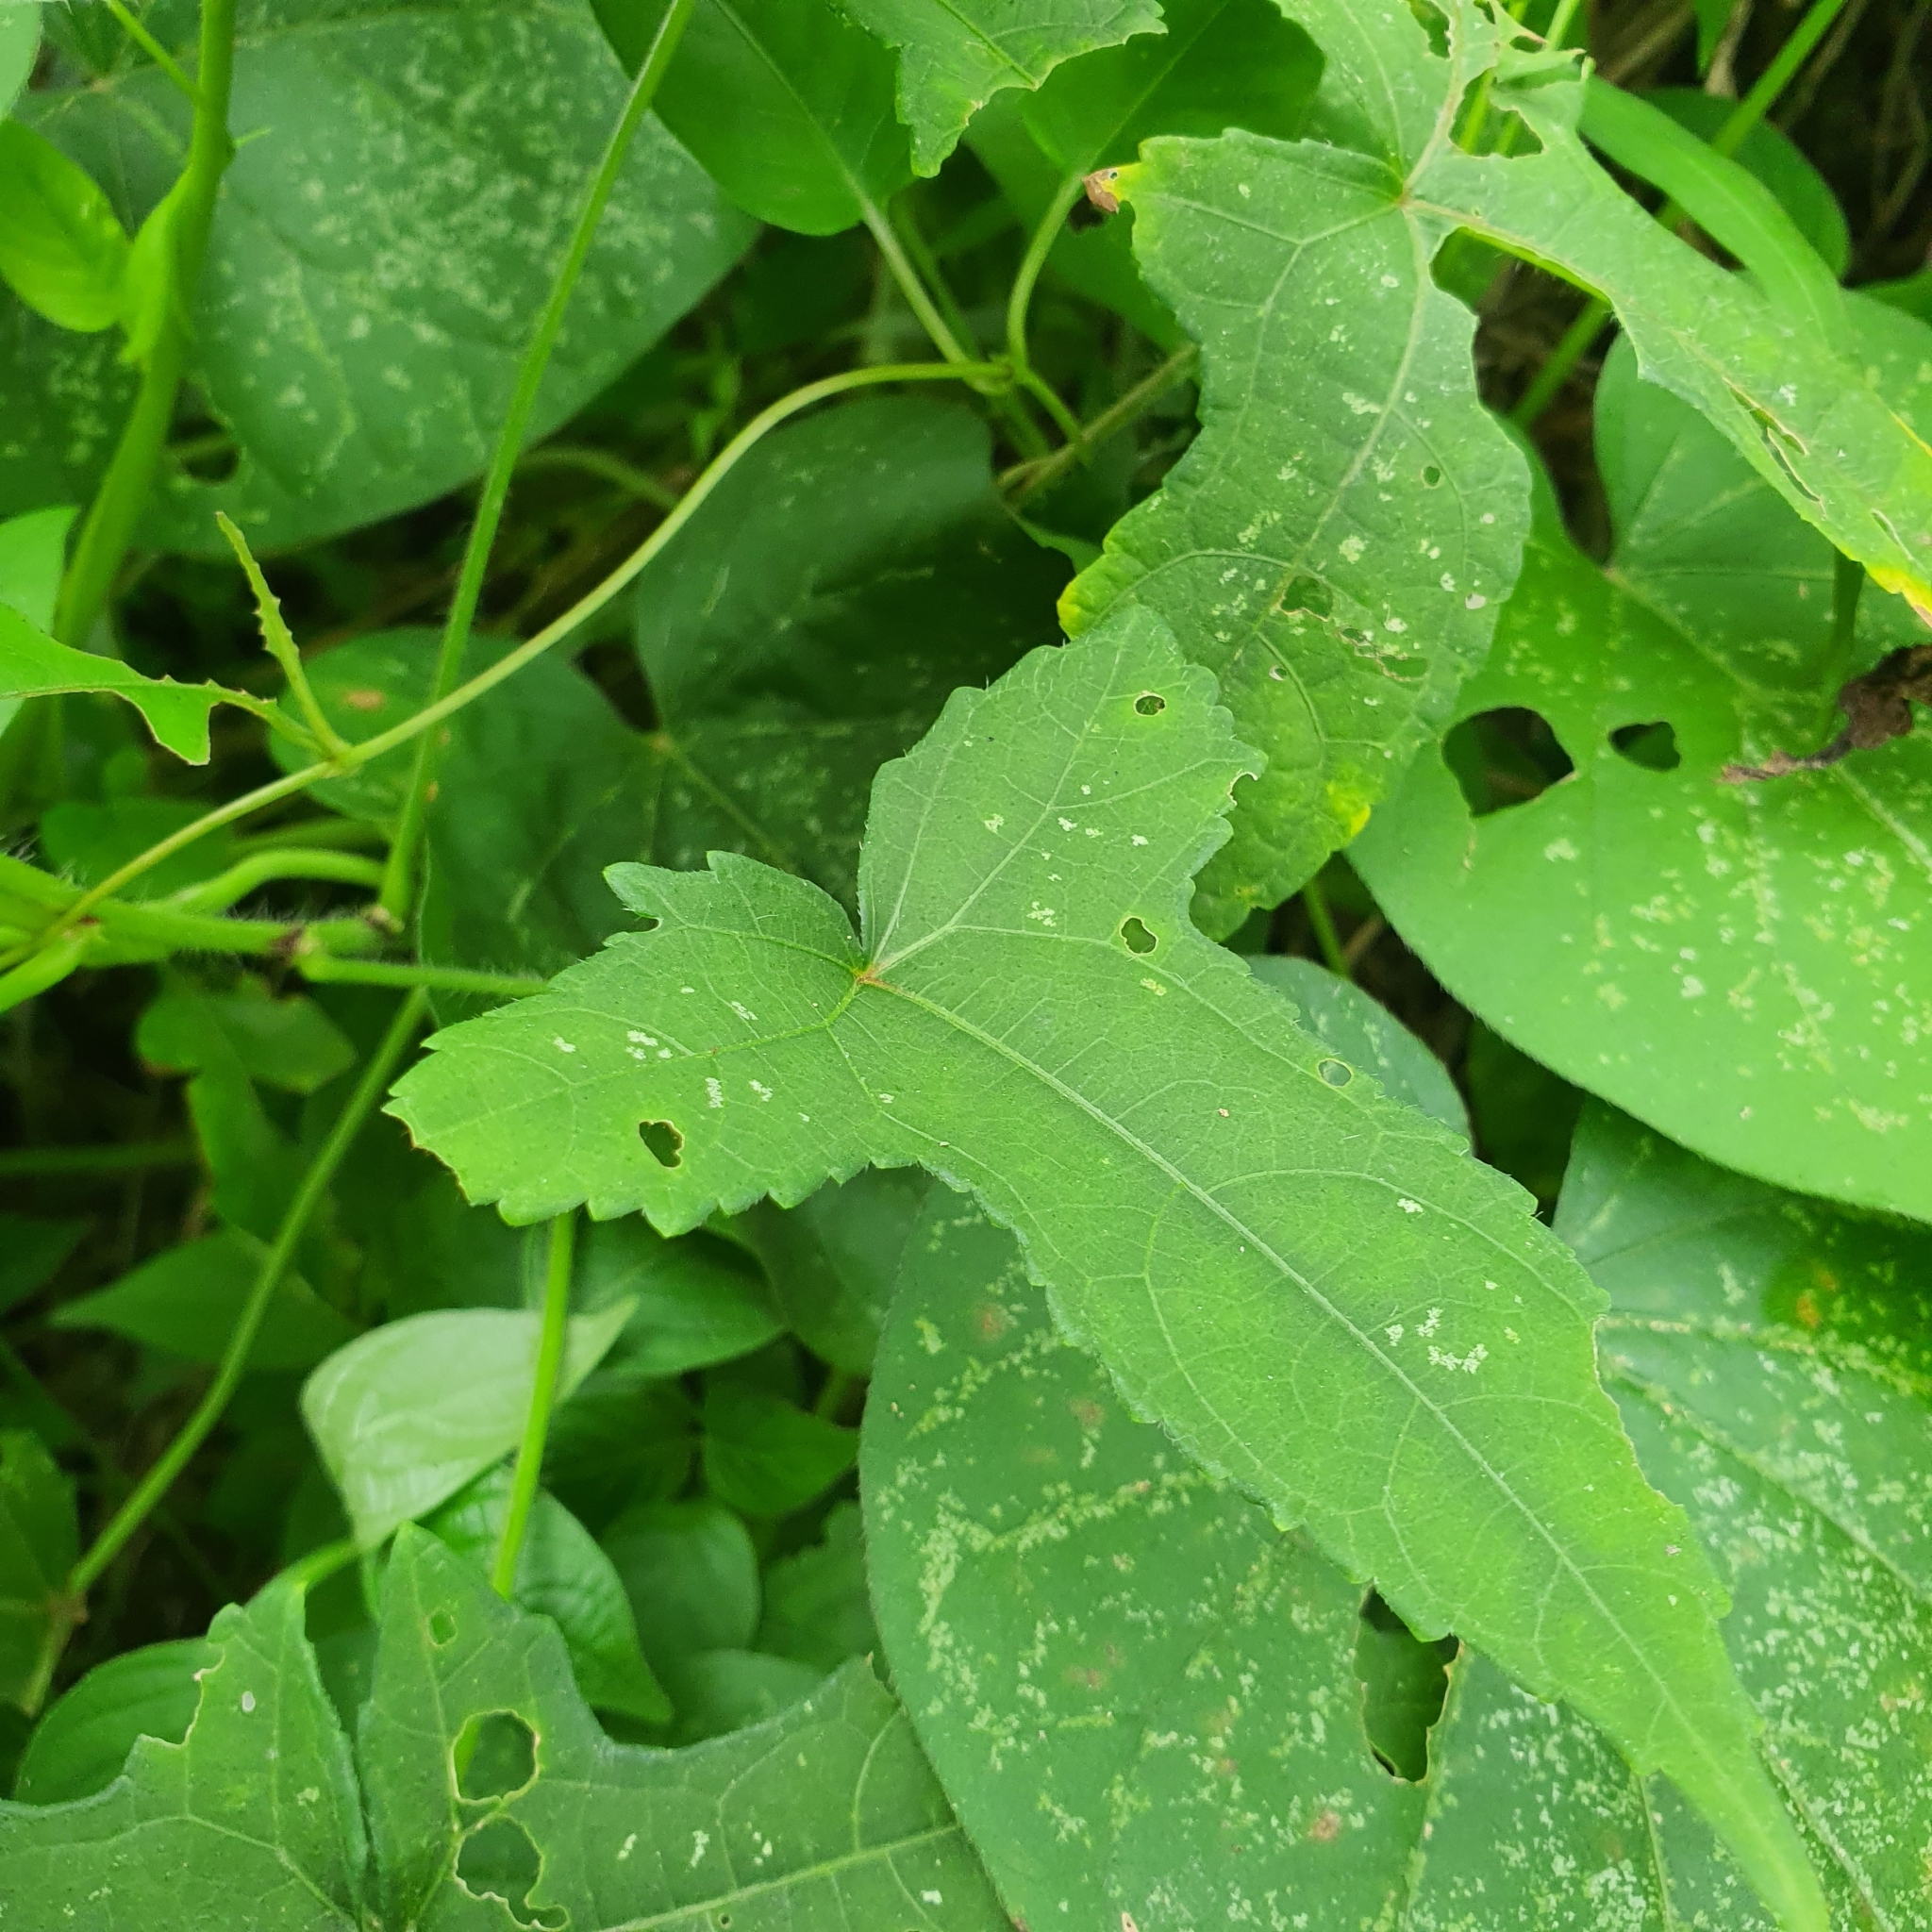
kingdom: Plantae
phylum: Tracheophyta
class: Magnoliopsida
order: Malvales
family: Malvaceae
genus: Abelmoschus
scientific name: Abelmoschus moschatus
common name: Musk okra
